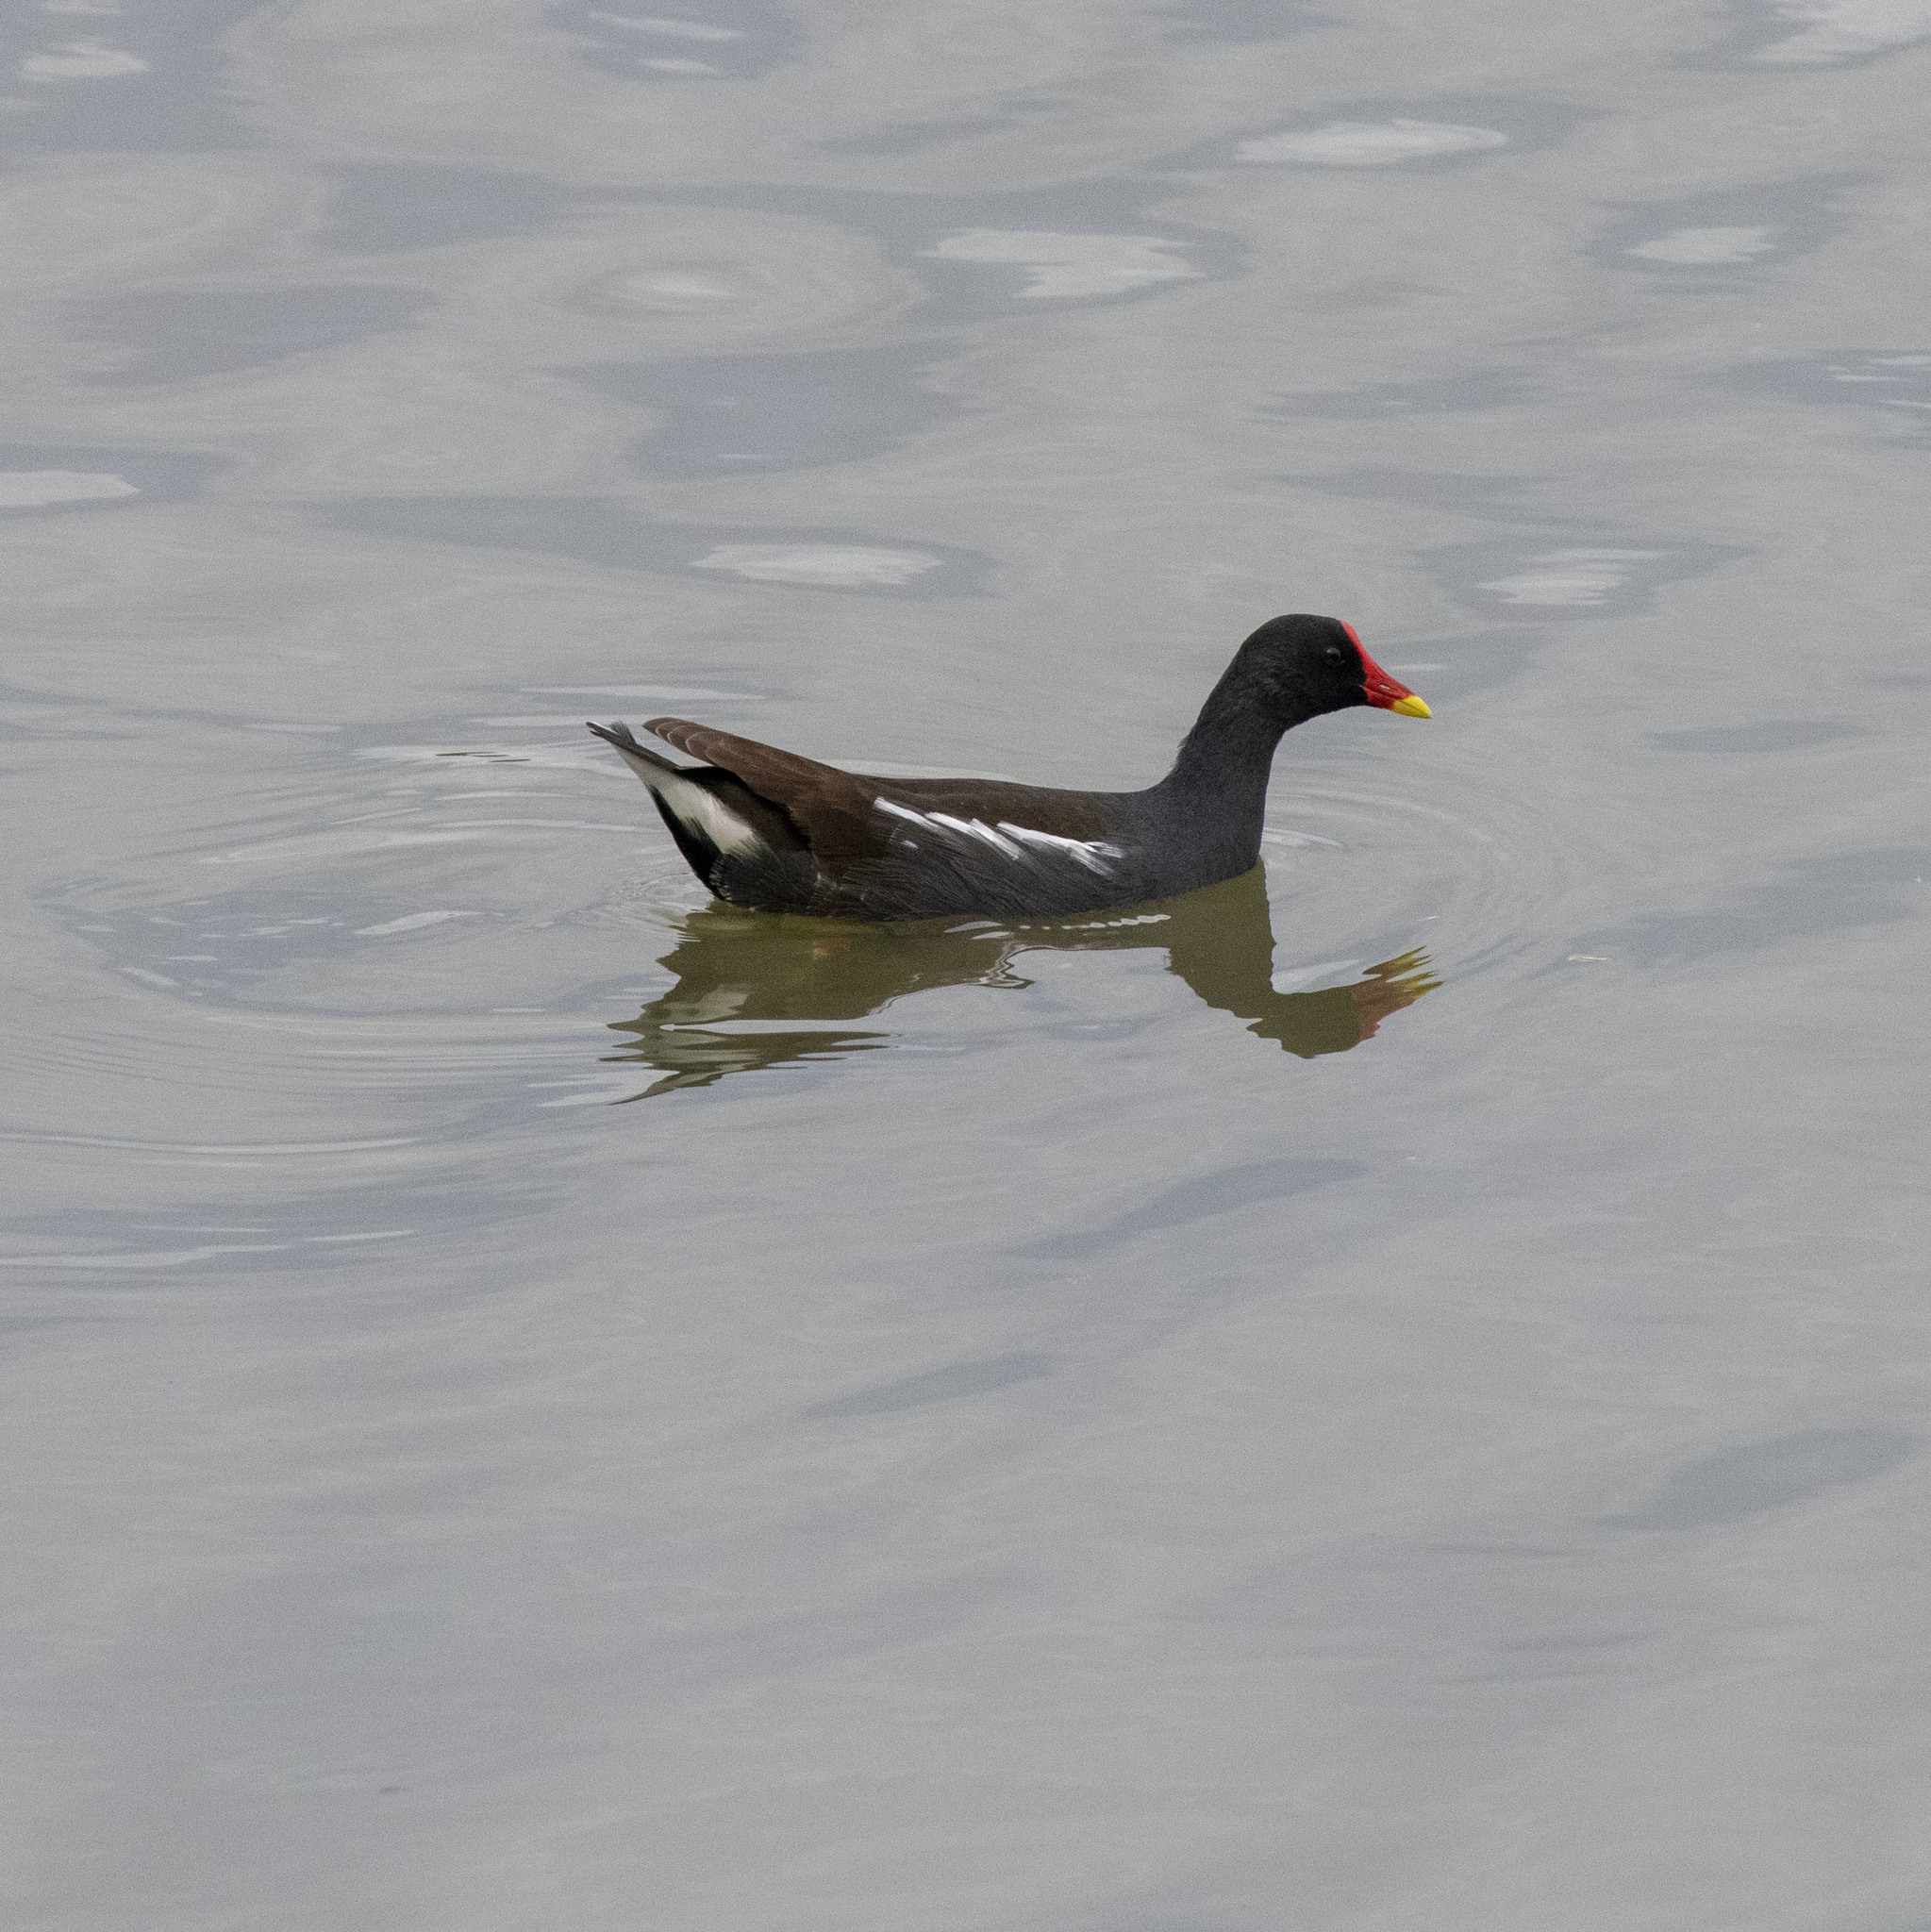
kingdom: Animalia
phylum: Chordata
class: Aves
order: Gruiformes
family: Rallidae
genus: Gallinula
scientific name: Gallinula chloropus
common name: Common moorhen
